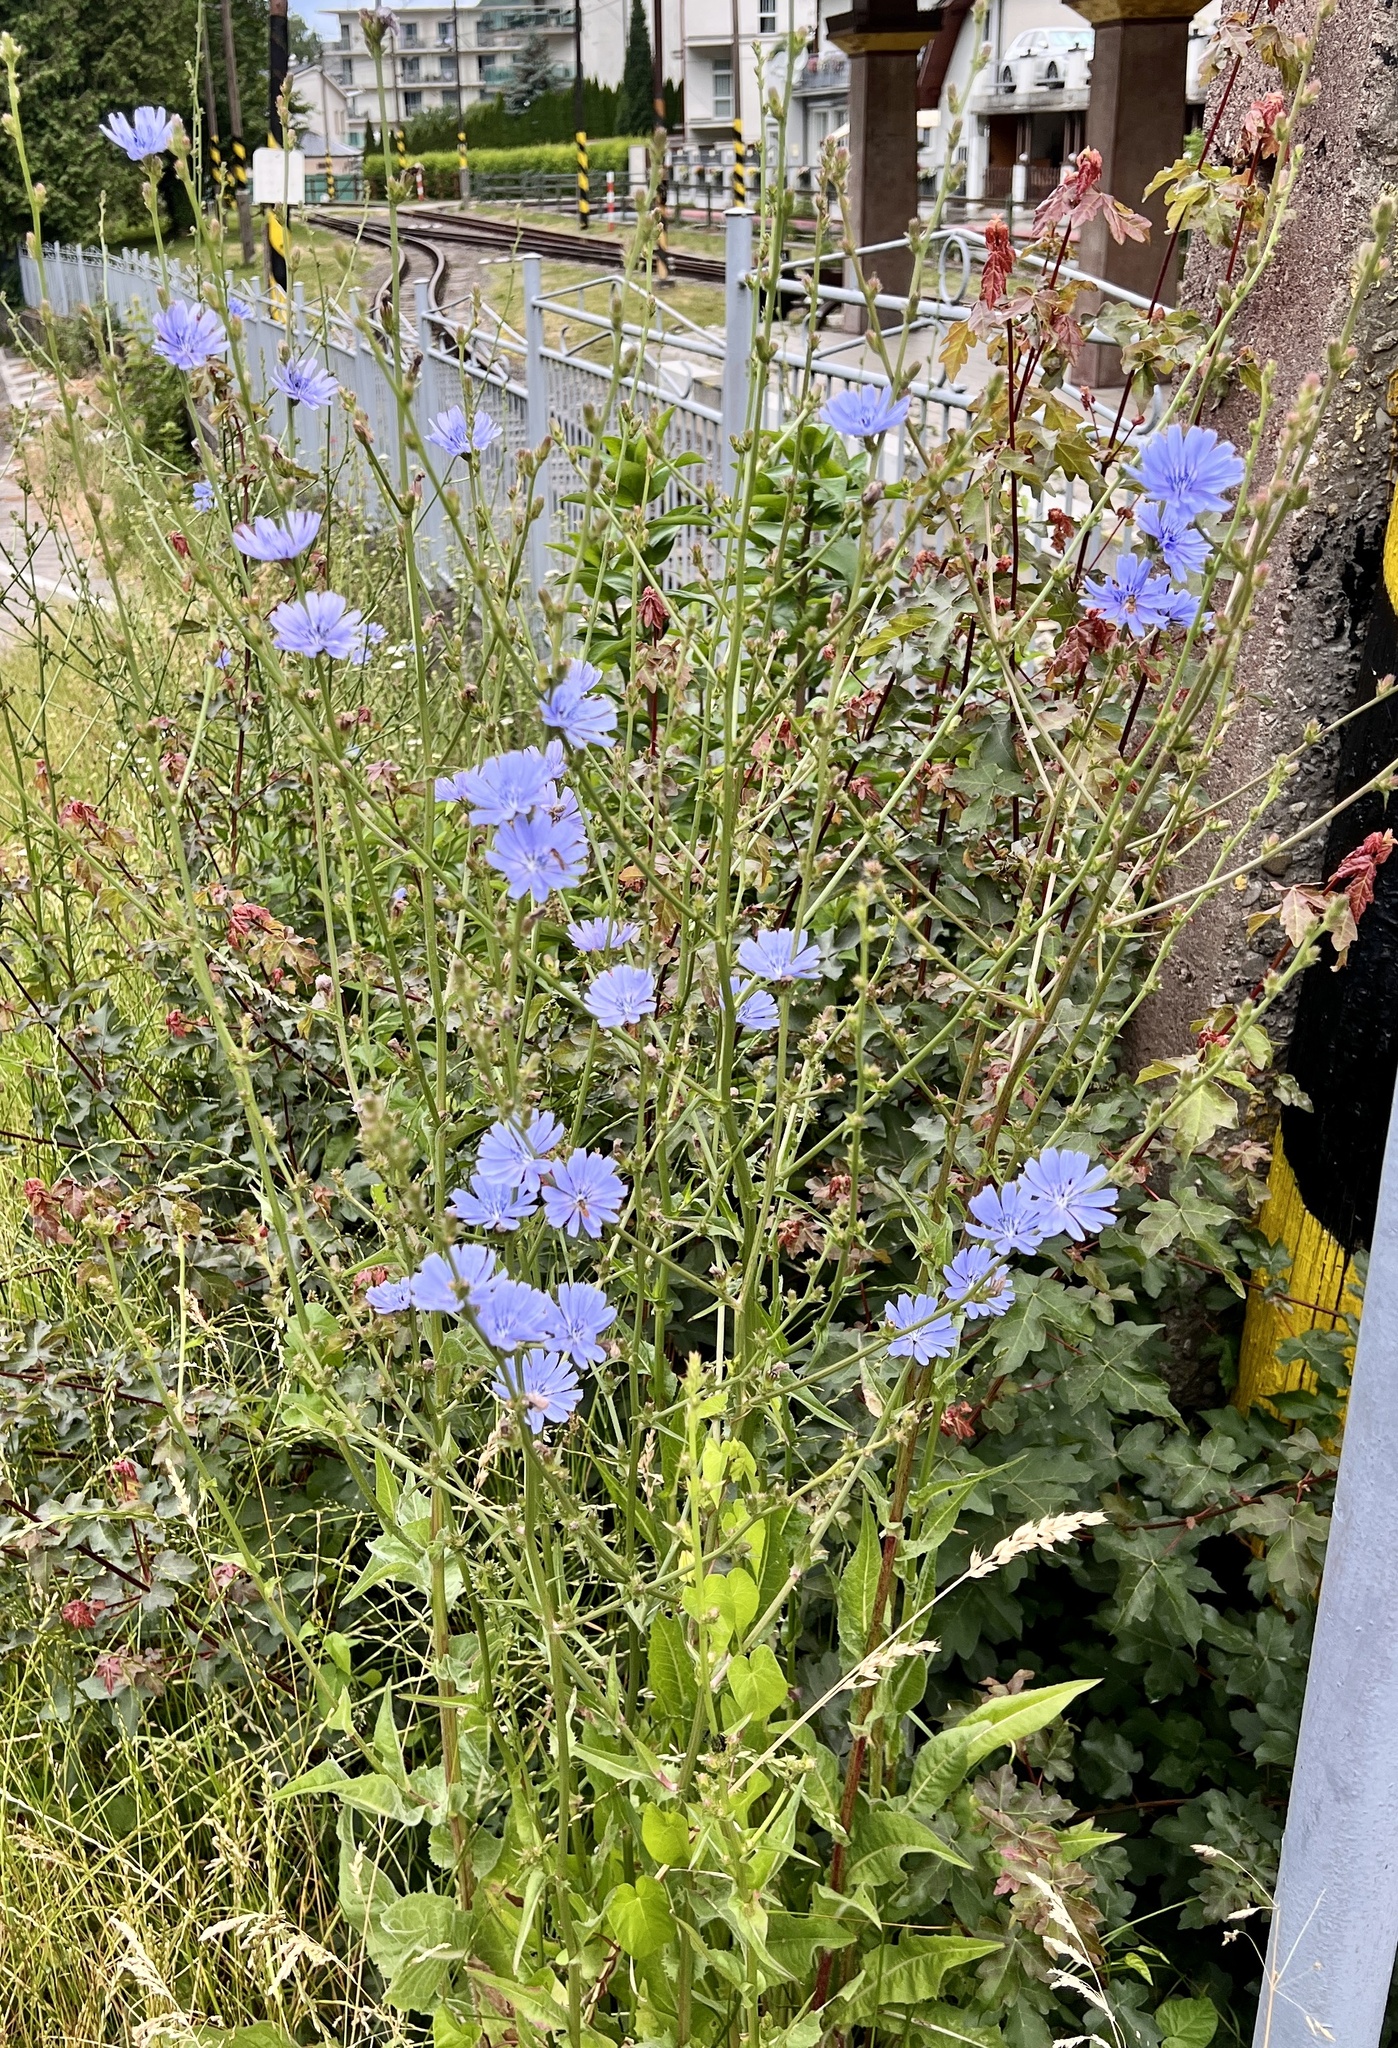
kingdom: Plantae
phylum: Tracheophyta
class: Magnoliopsida
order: Asterales
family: Asteraceae
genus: Cichorium
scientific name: Cichorium intybus
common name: Chicory
